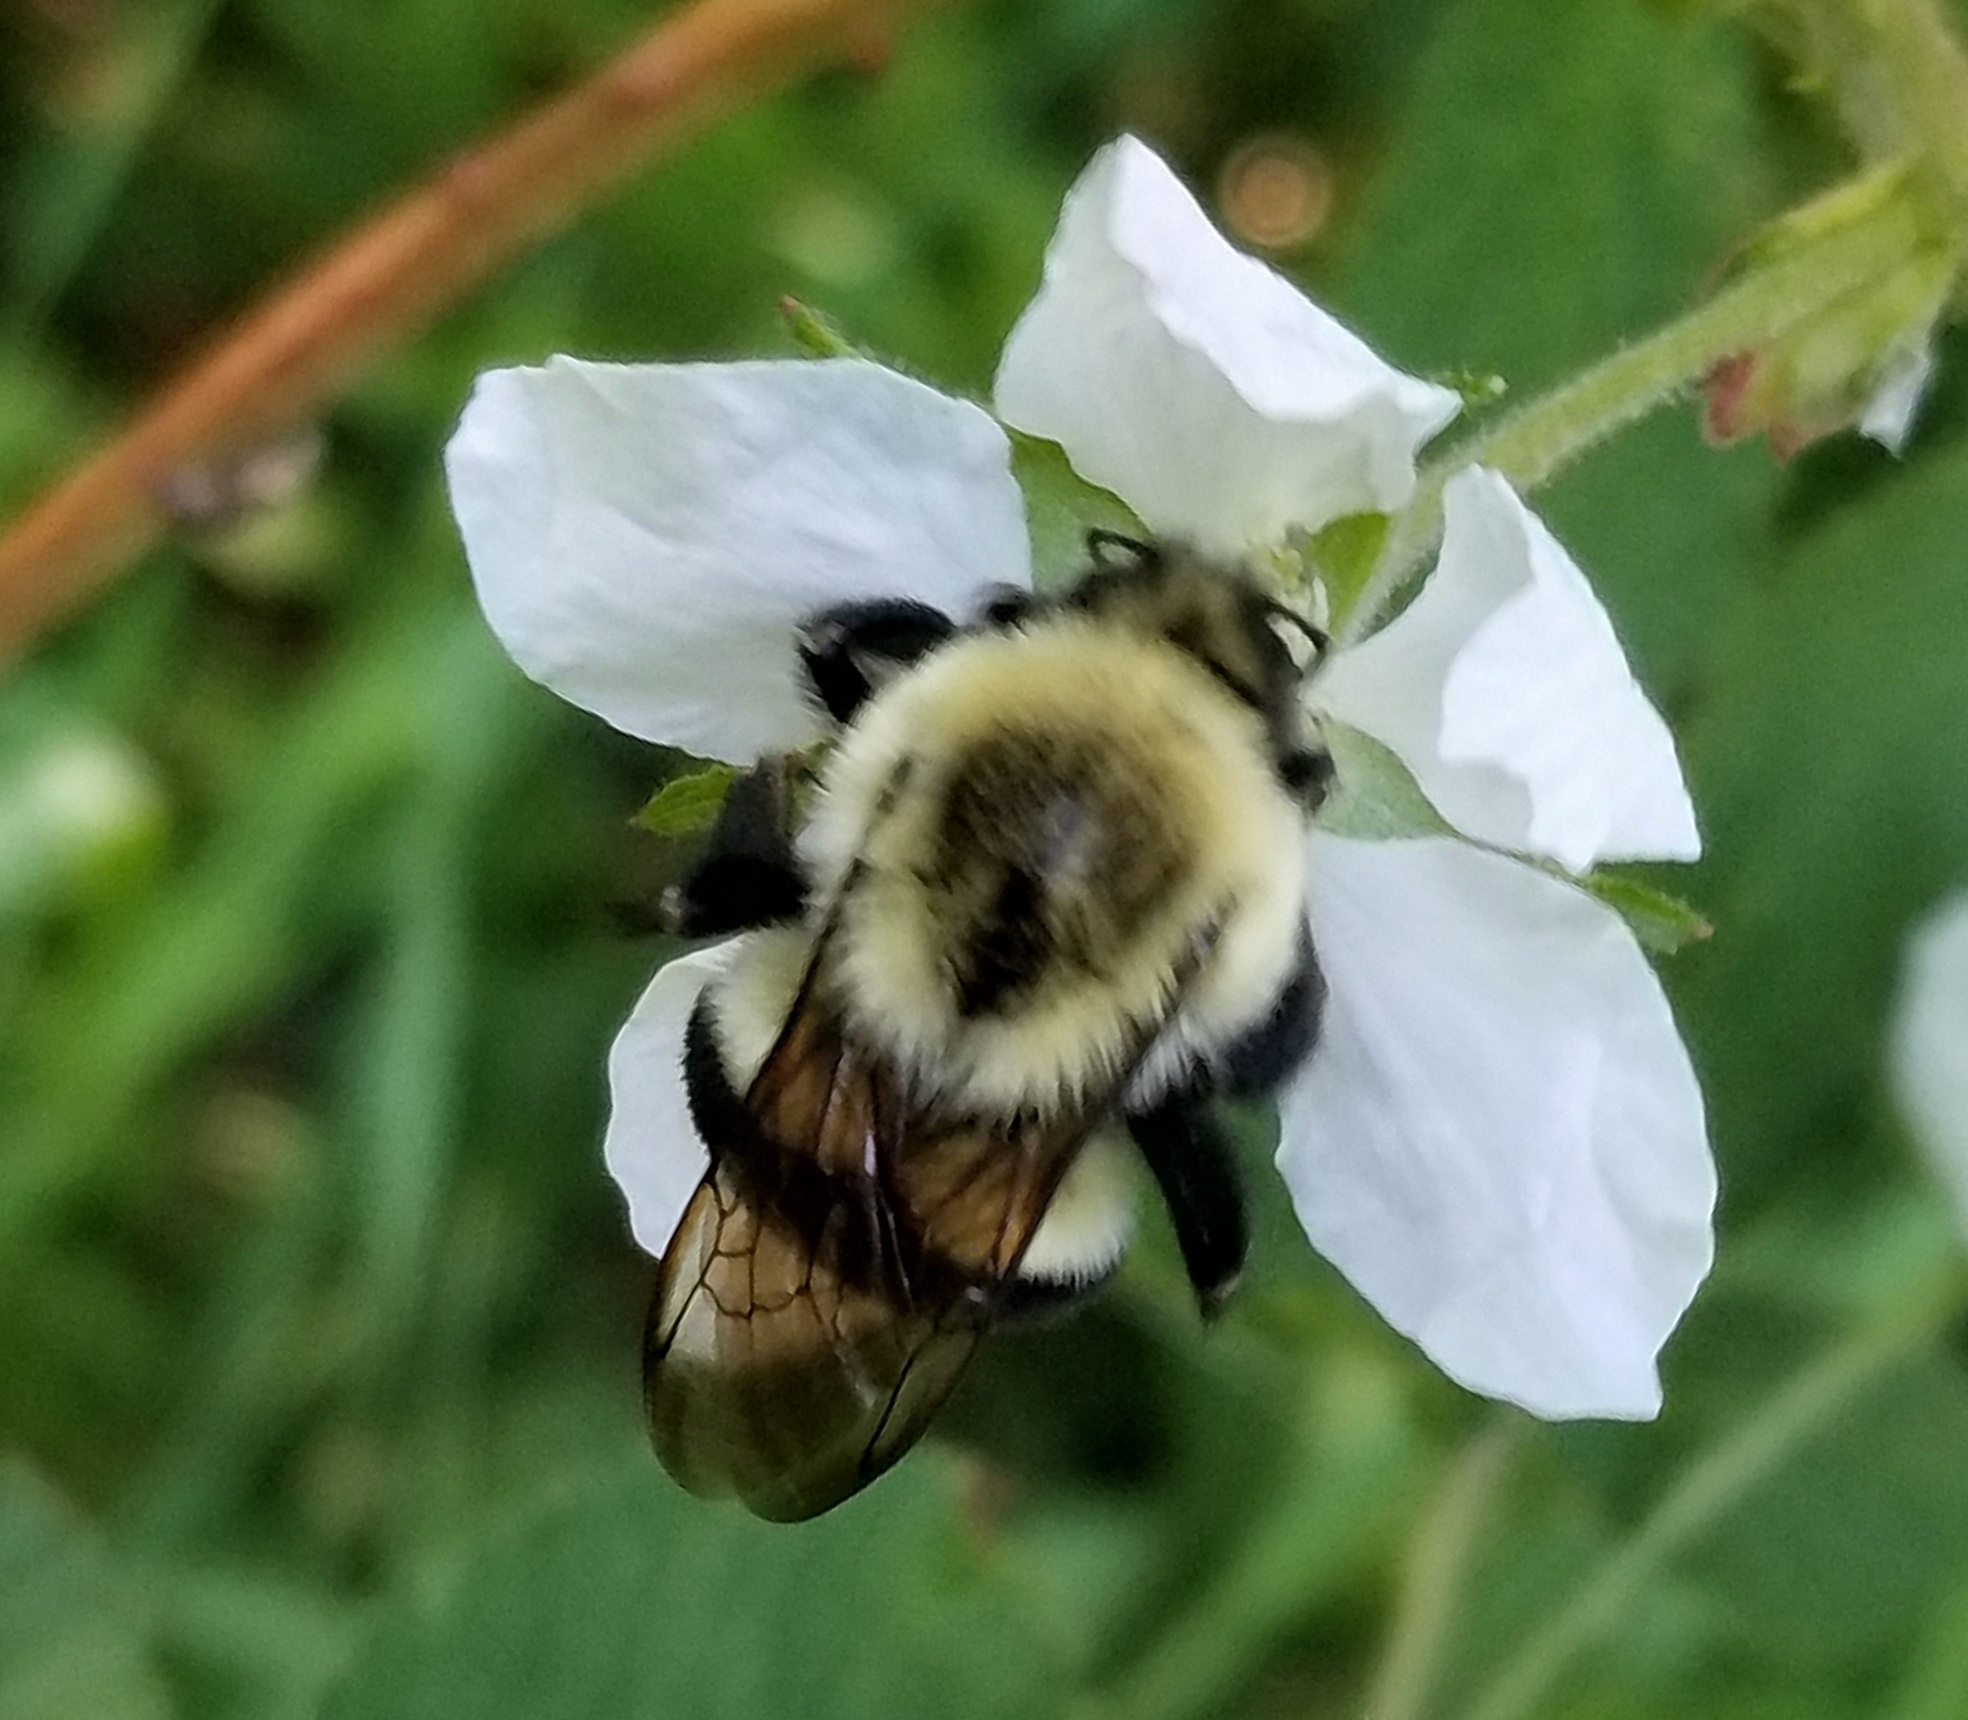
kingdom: Animalia
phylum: Arthropoda
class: Insecta
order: Hymenoptera
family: Apidae
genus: Bombus
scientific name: Bombus impatiens
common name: Common eastern bumble bee
